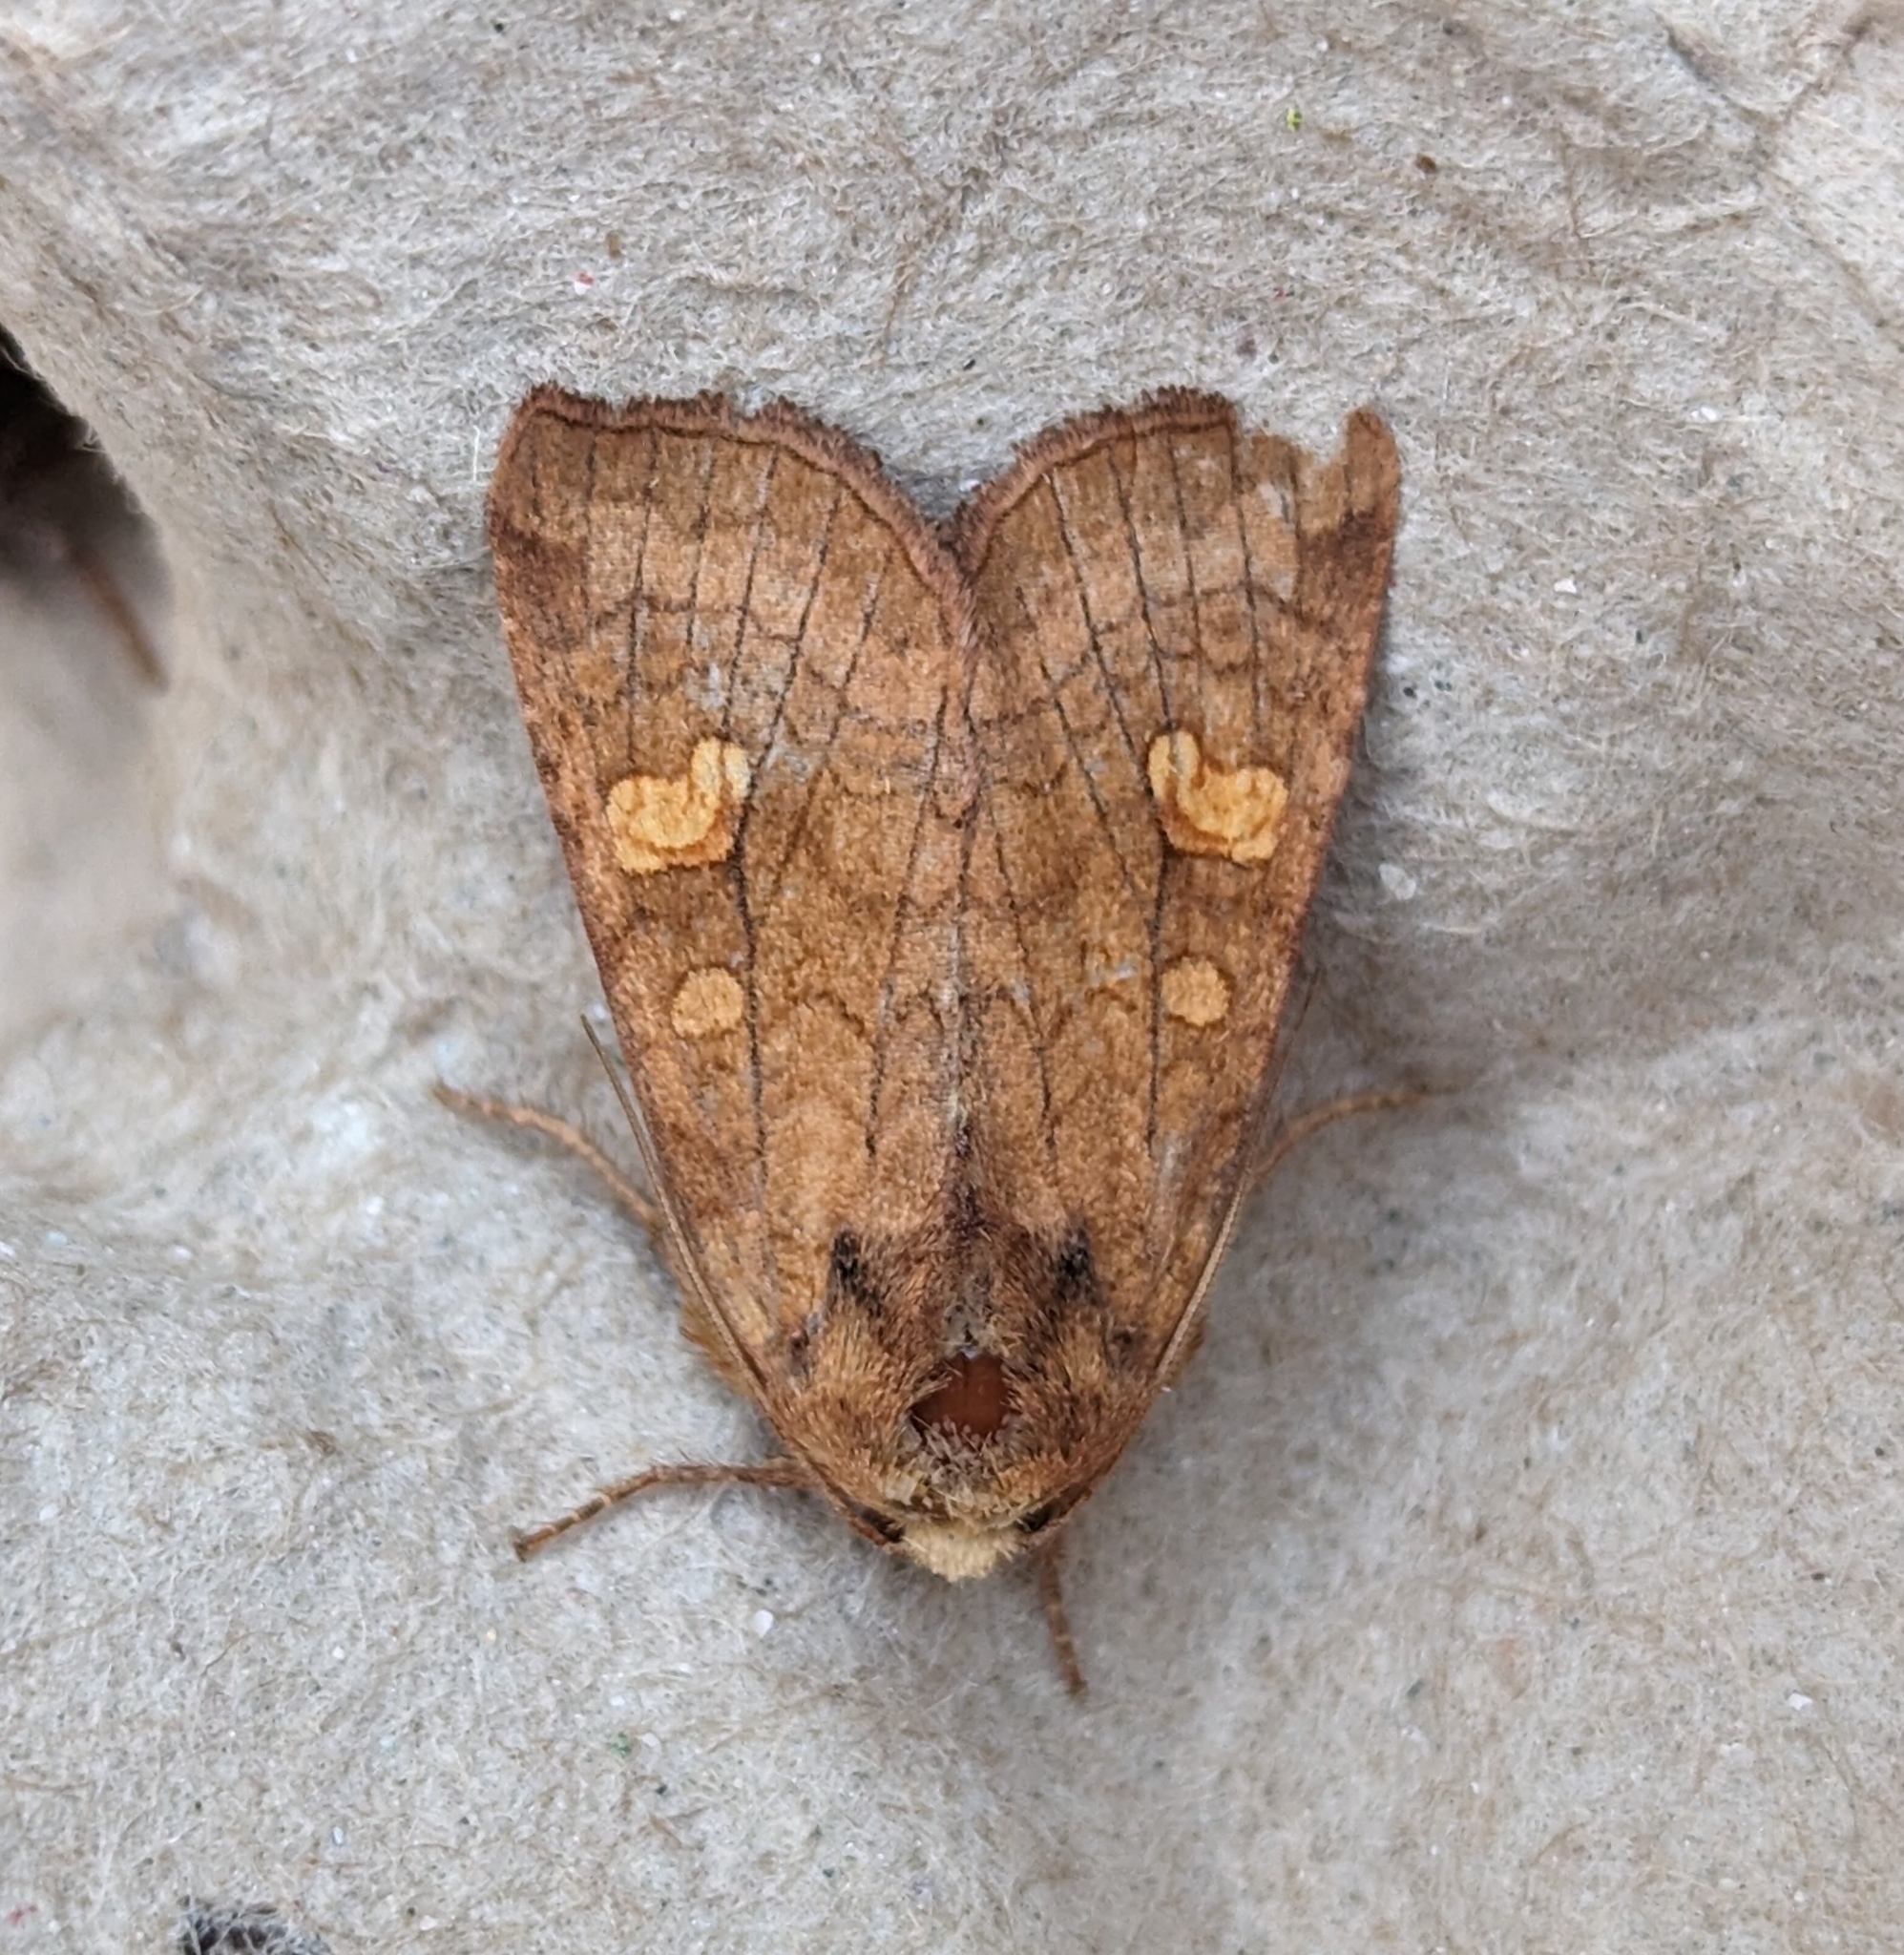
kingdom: Animalia
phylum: Arthropoda
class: Insecta
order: Lepidoptera
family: Noctuidae
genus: Amphipoea
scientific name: Amphipoea americana
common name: American ear moth
